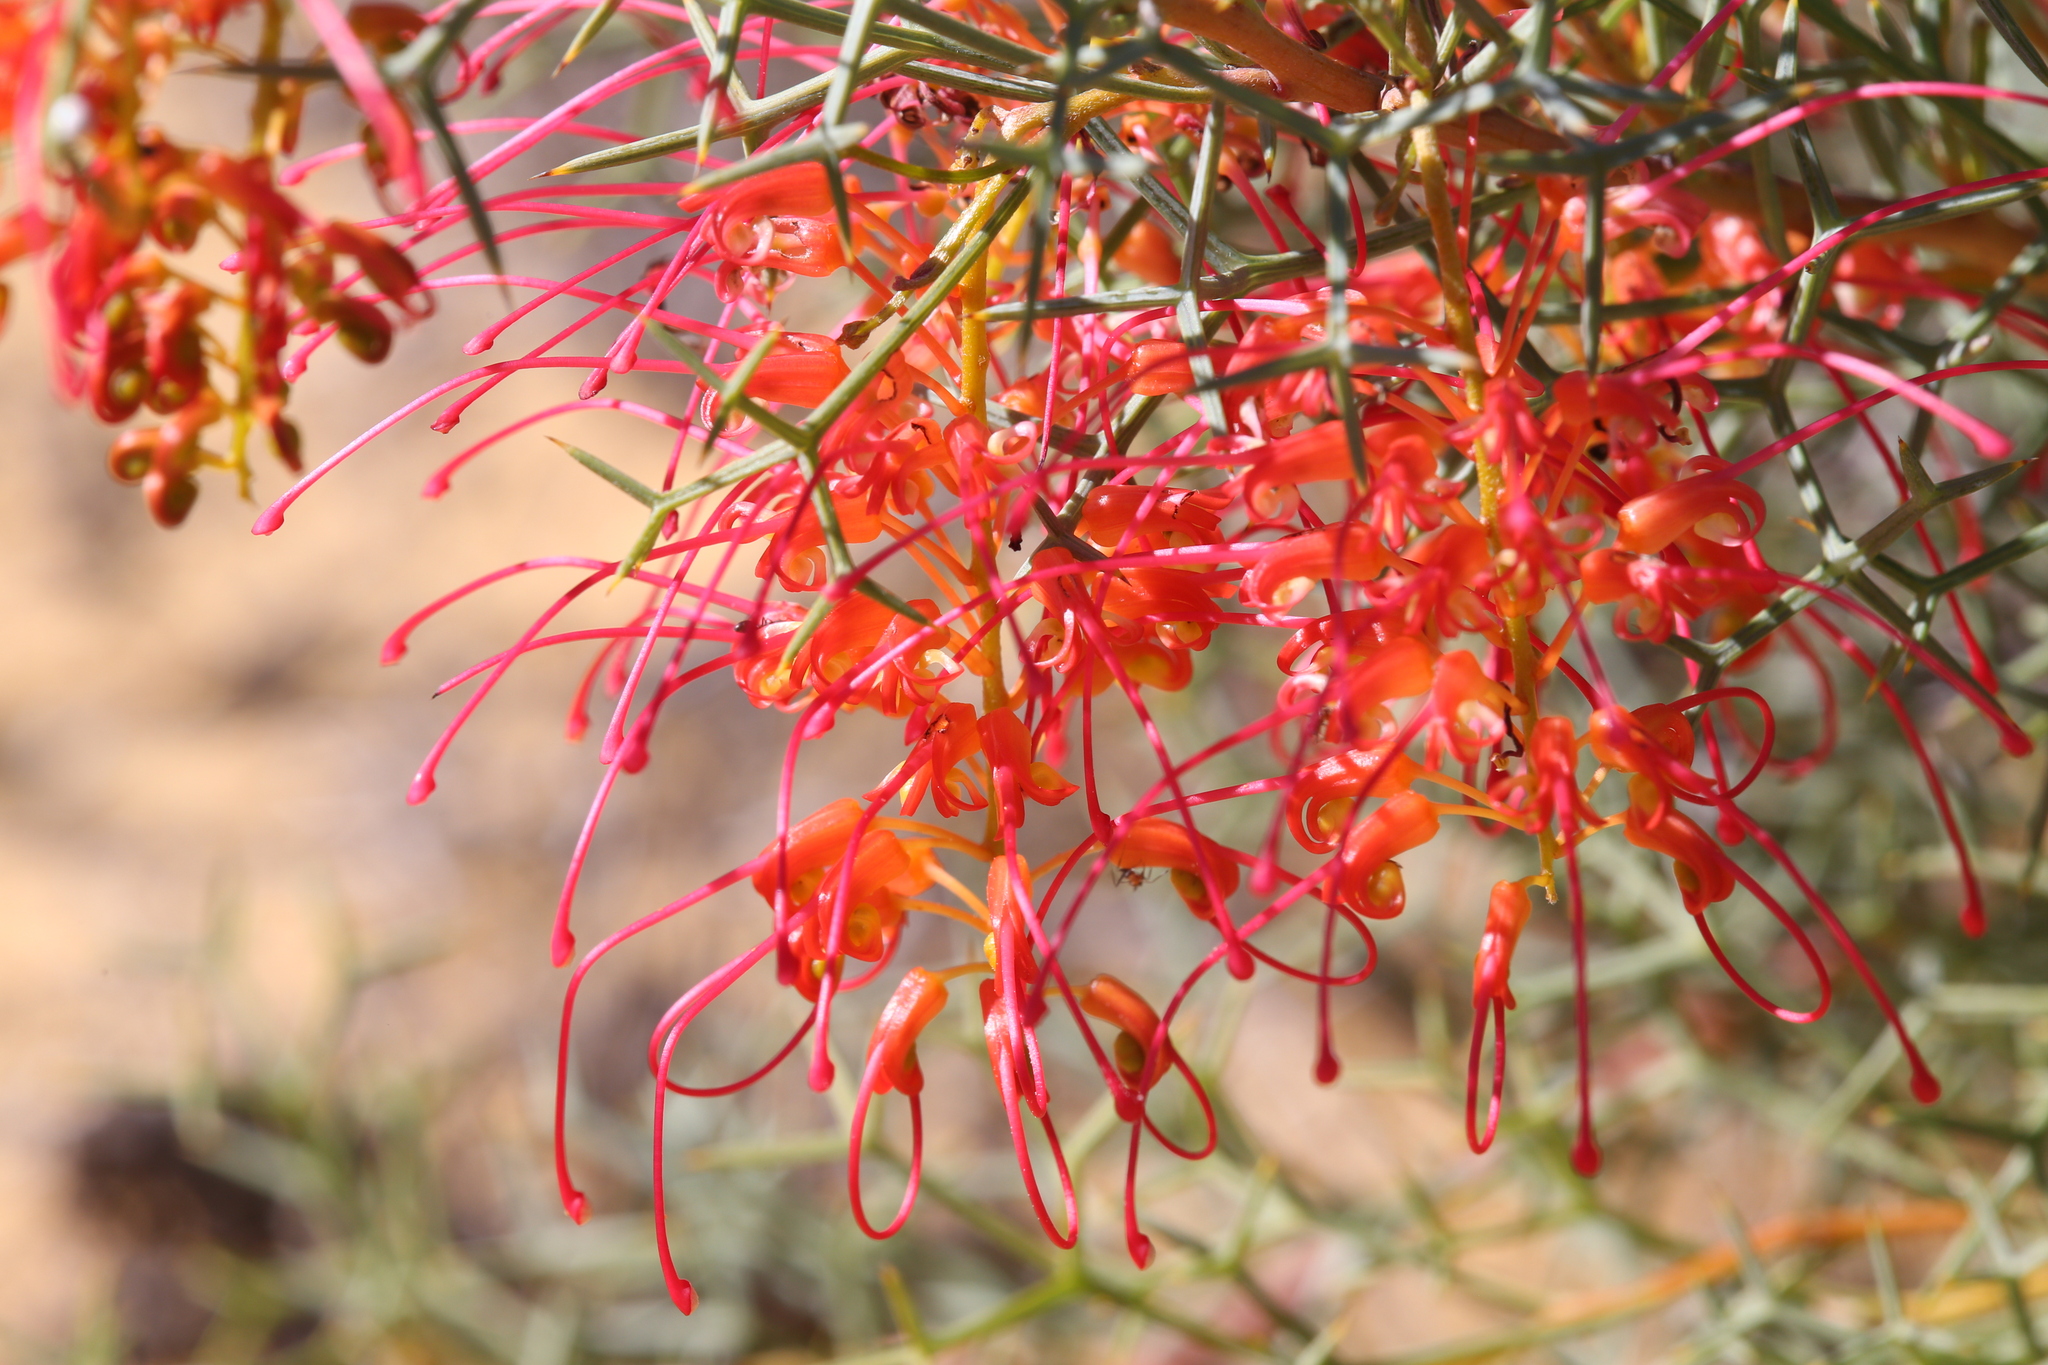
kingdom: Plantae
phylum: Tracheophyta
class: Magnoliopsida
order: Proteales
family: Proteaceae
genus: Grevillea
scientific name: Grevillea dielsiana
